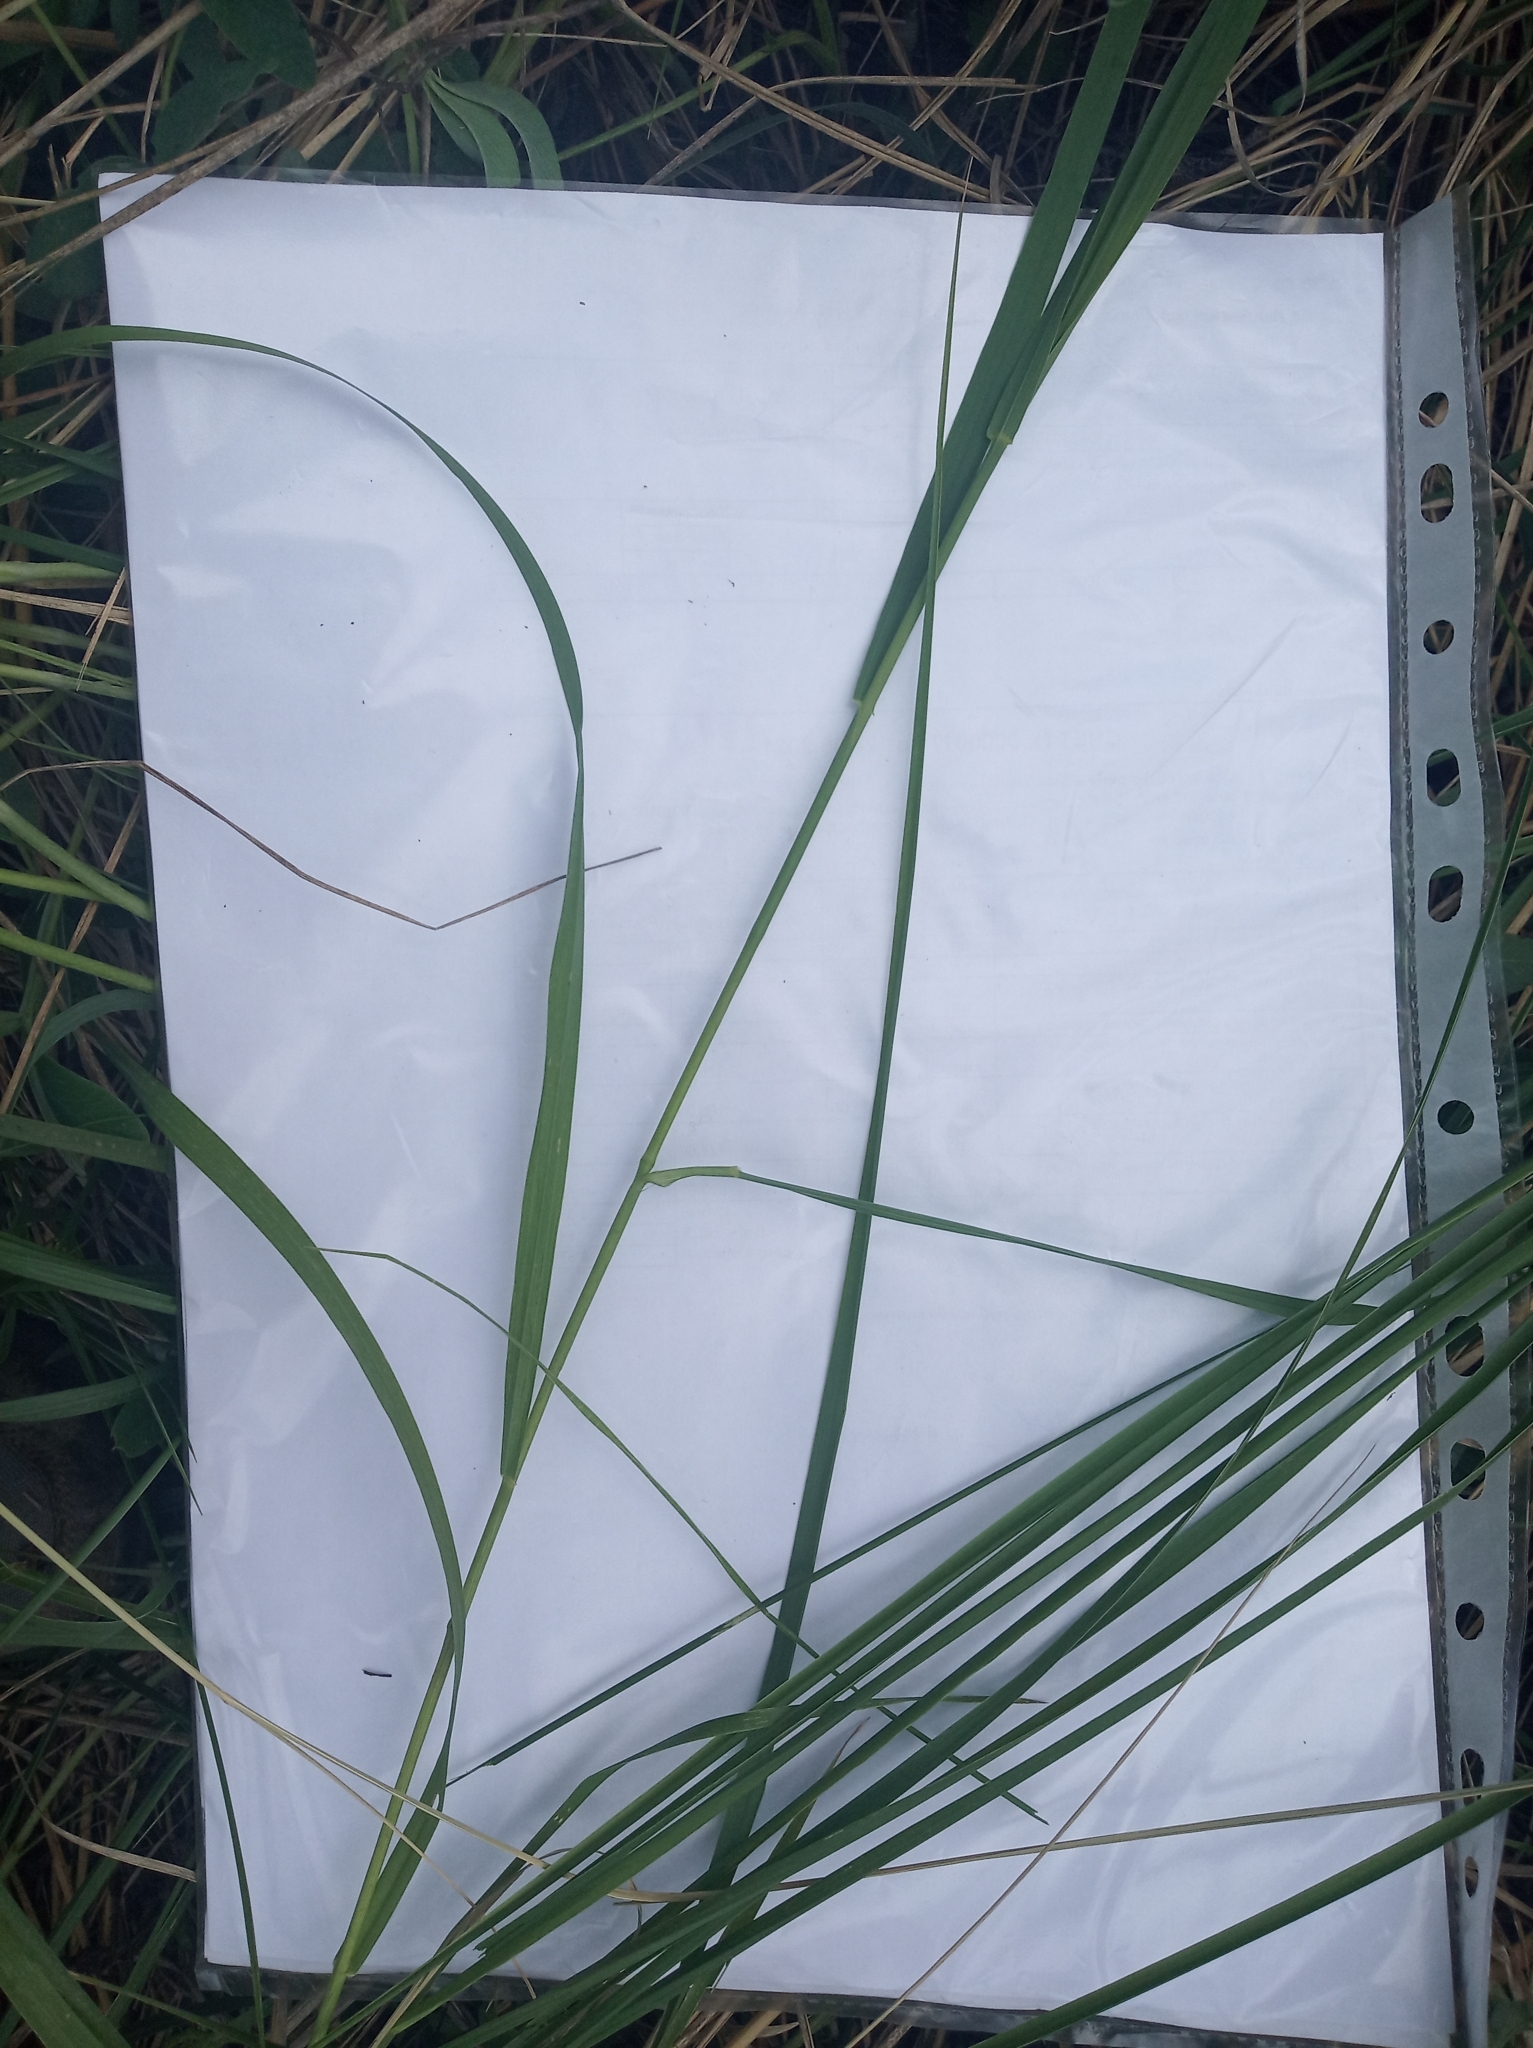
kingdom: Plantae
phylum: Tracheophyta
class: Liliopsida
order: Poales
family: Poaceae
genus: Calamagrostis
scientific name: Calamagrostis epigejos
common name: Wood small-reed
